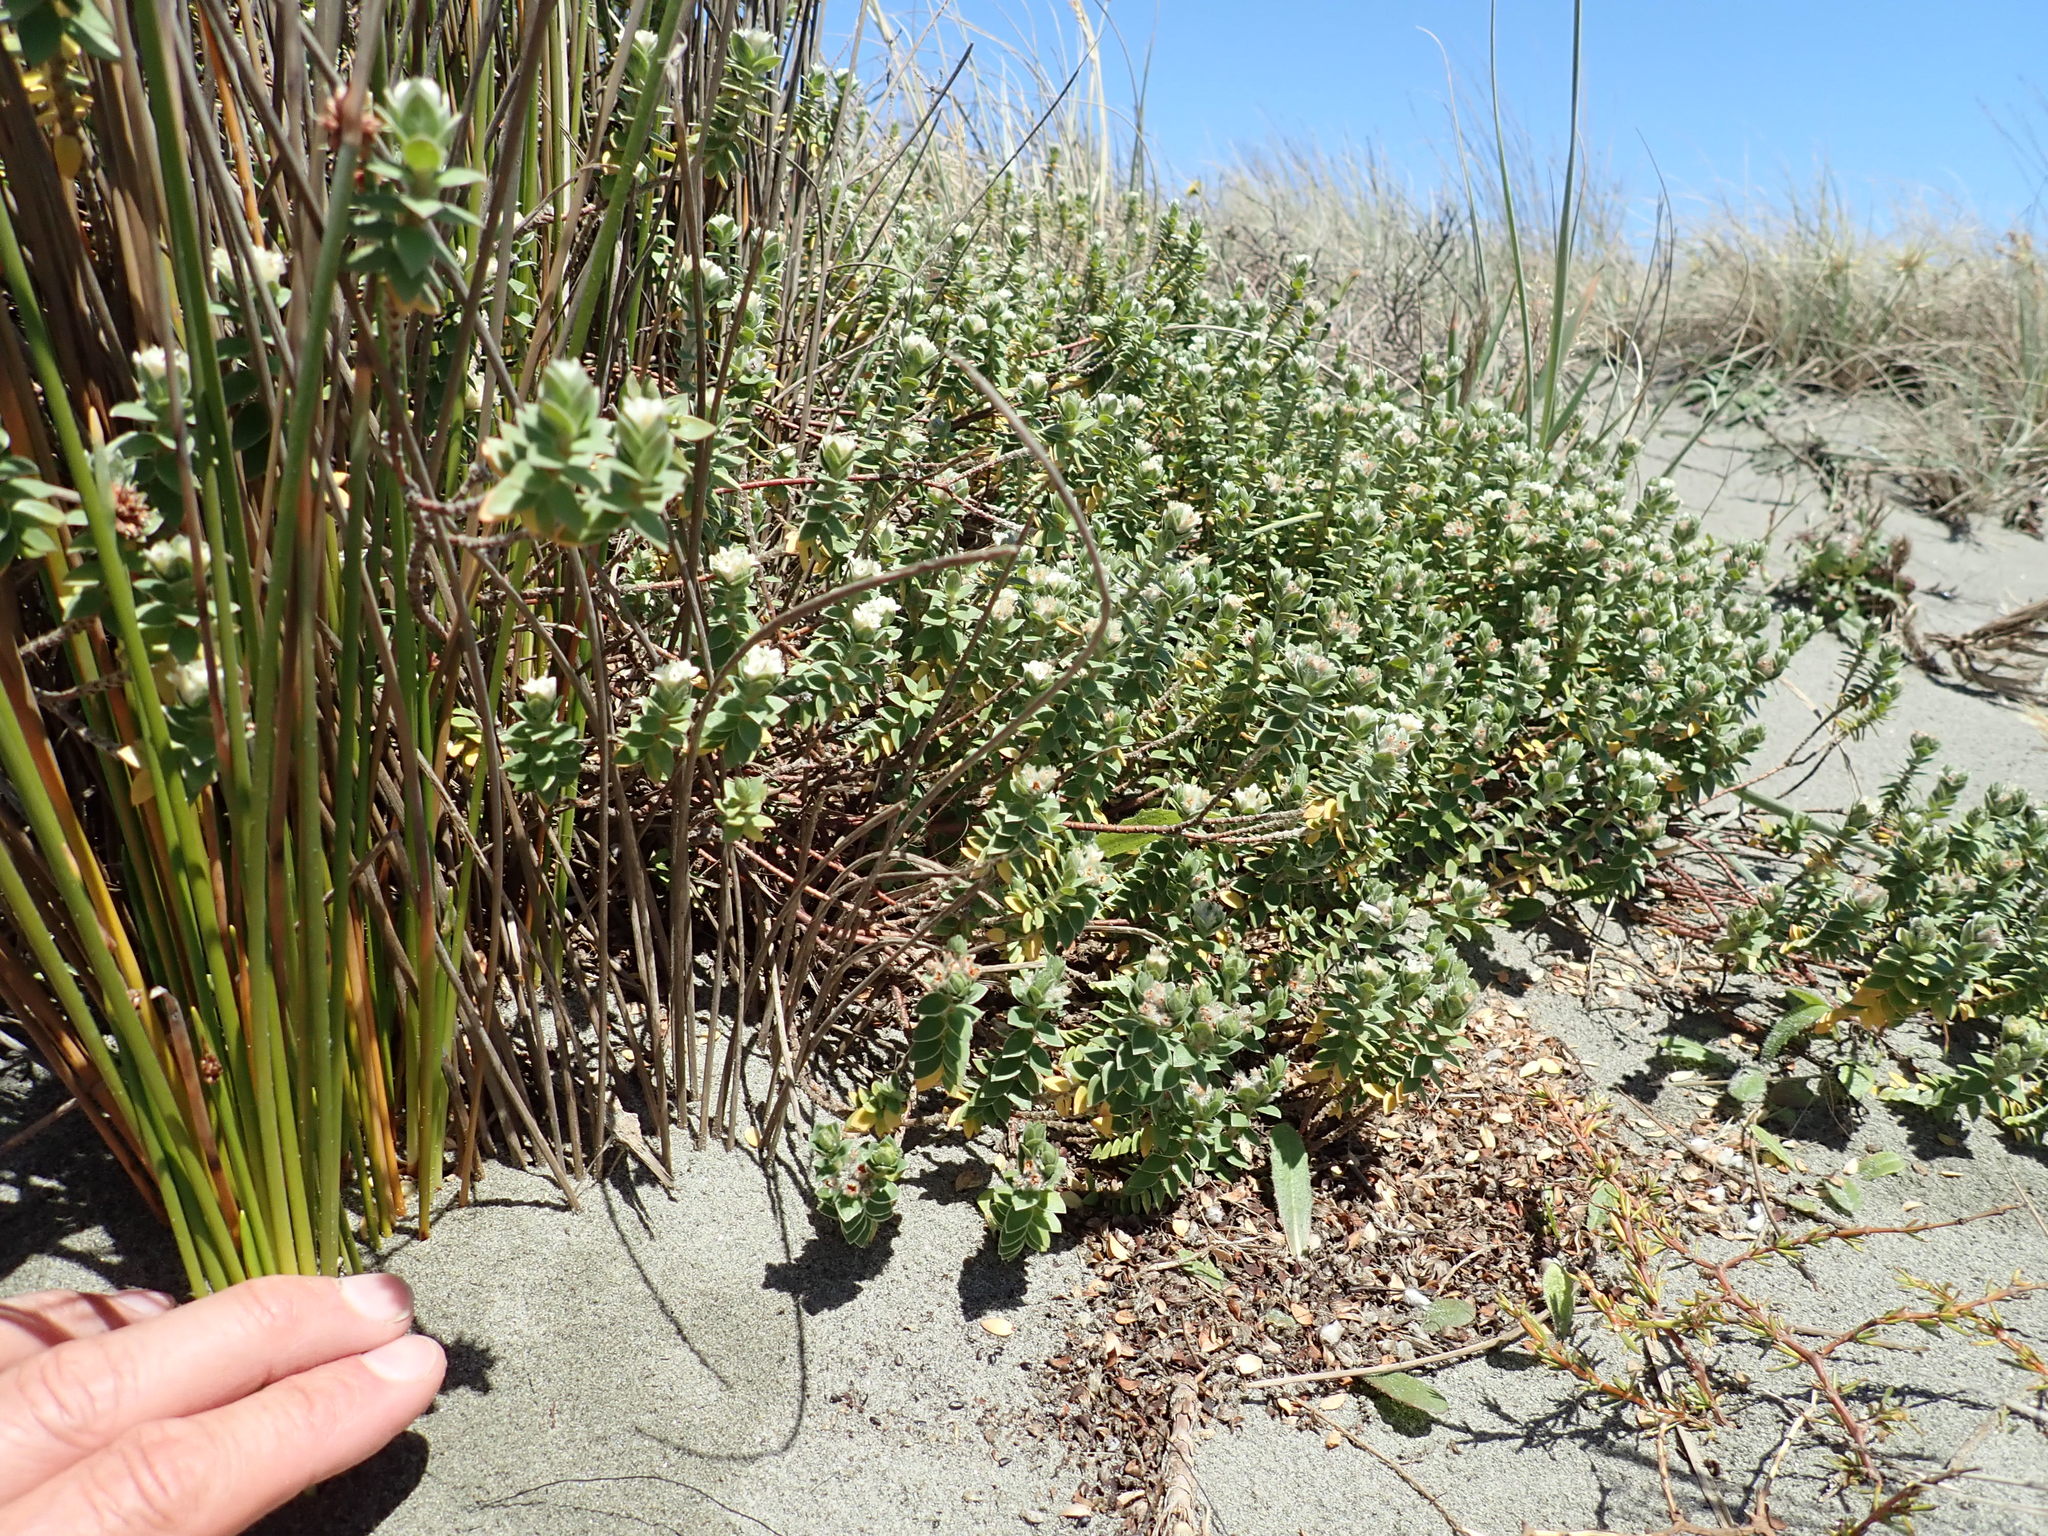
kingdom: Plantae
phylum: Tracheophyta
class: Magnoliopsida
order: Malvales
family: Thymelaeaceae
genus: Pimelea
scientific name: Pimelea villosa
